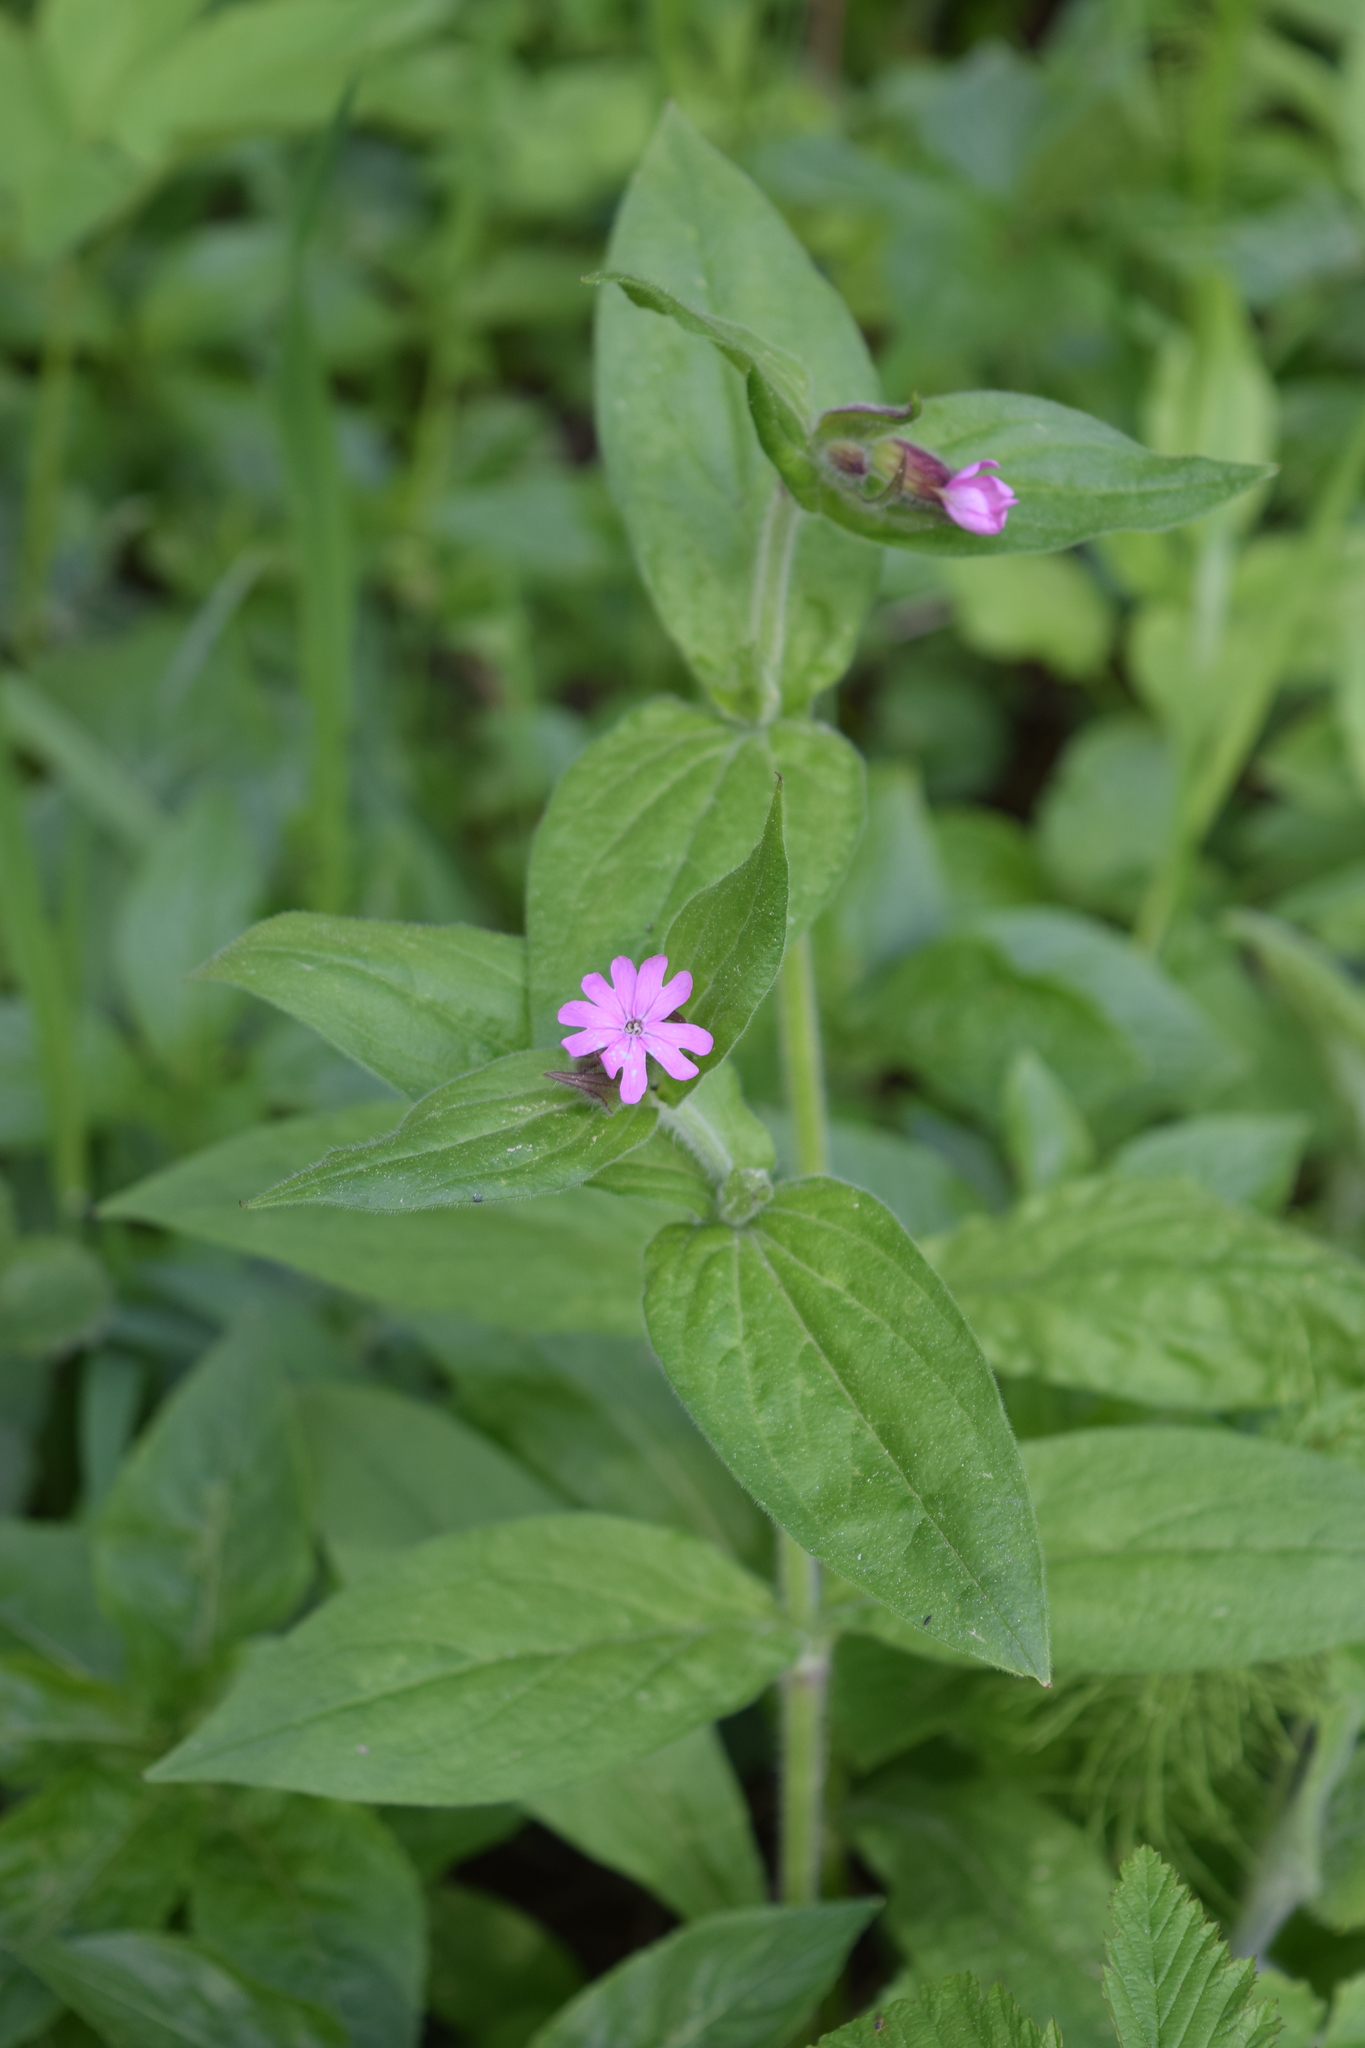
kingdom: Plantae
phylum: Tracheophyta
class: Magnoliopsida
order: Caryophyllales
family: Caryophyllaceae
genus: Silene
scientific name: Silene dioica
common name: Red campion
